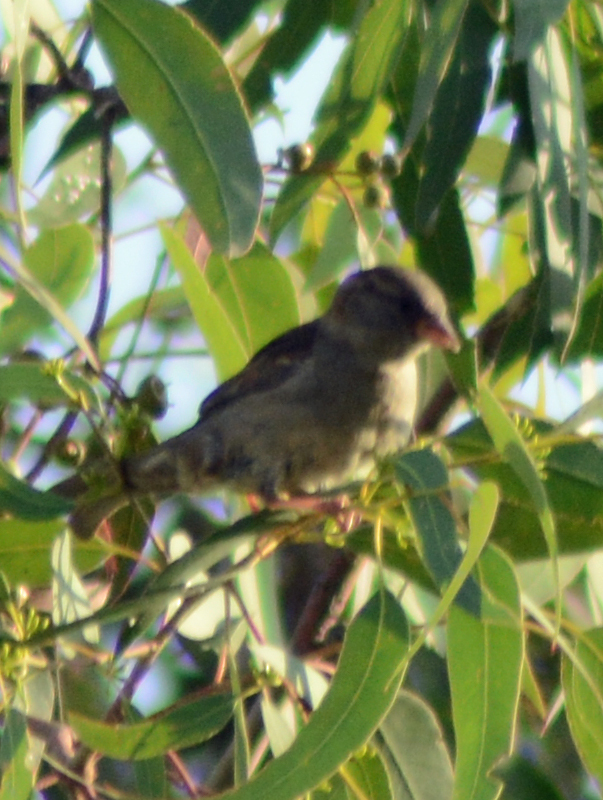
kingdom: Animalia
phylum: Chordata
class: Aves
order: Passeriformes
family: Passeridae
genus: Passer
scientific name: Passer domesticus
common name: House sparrow
